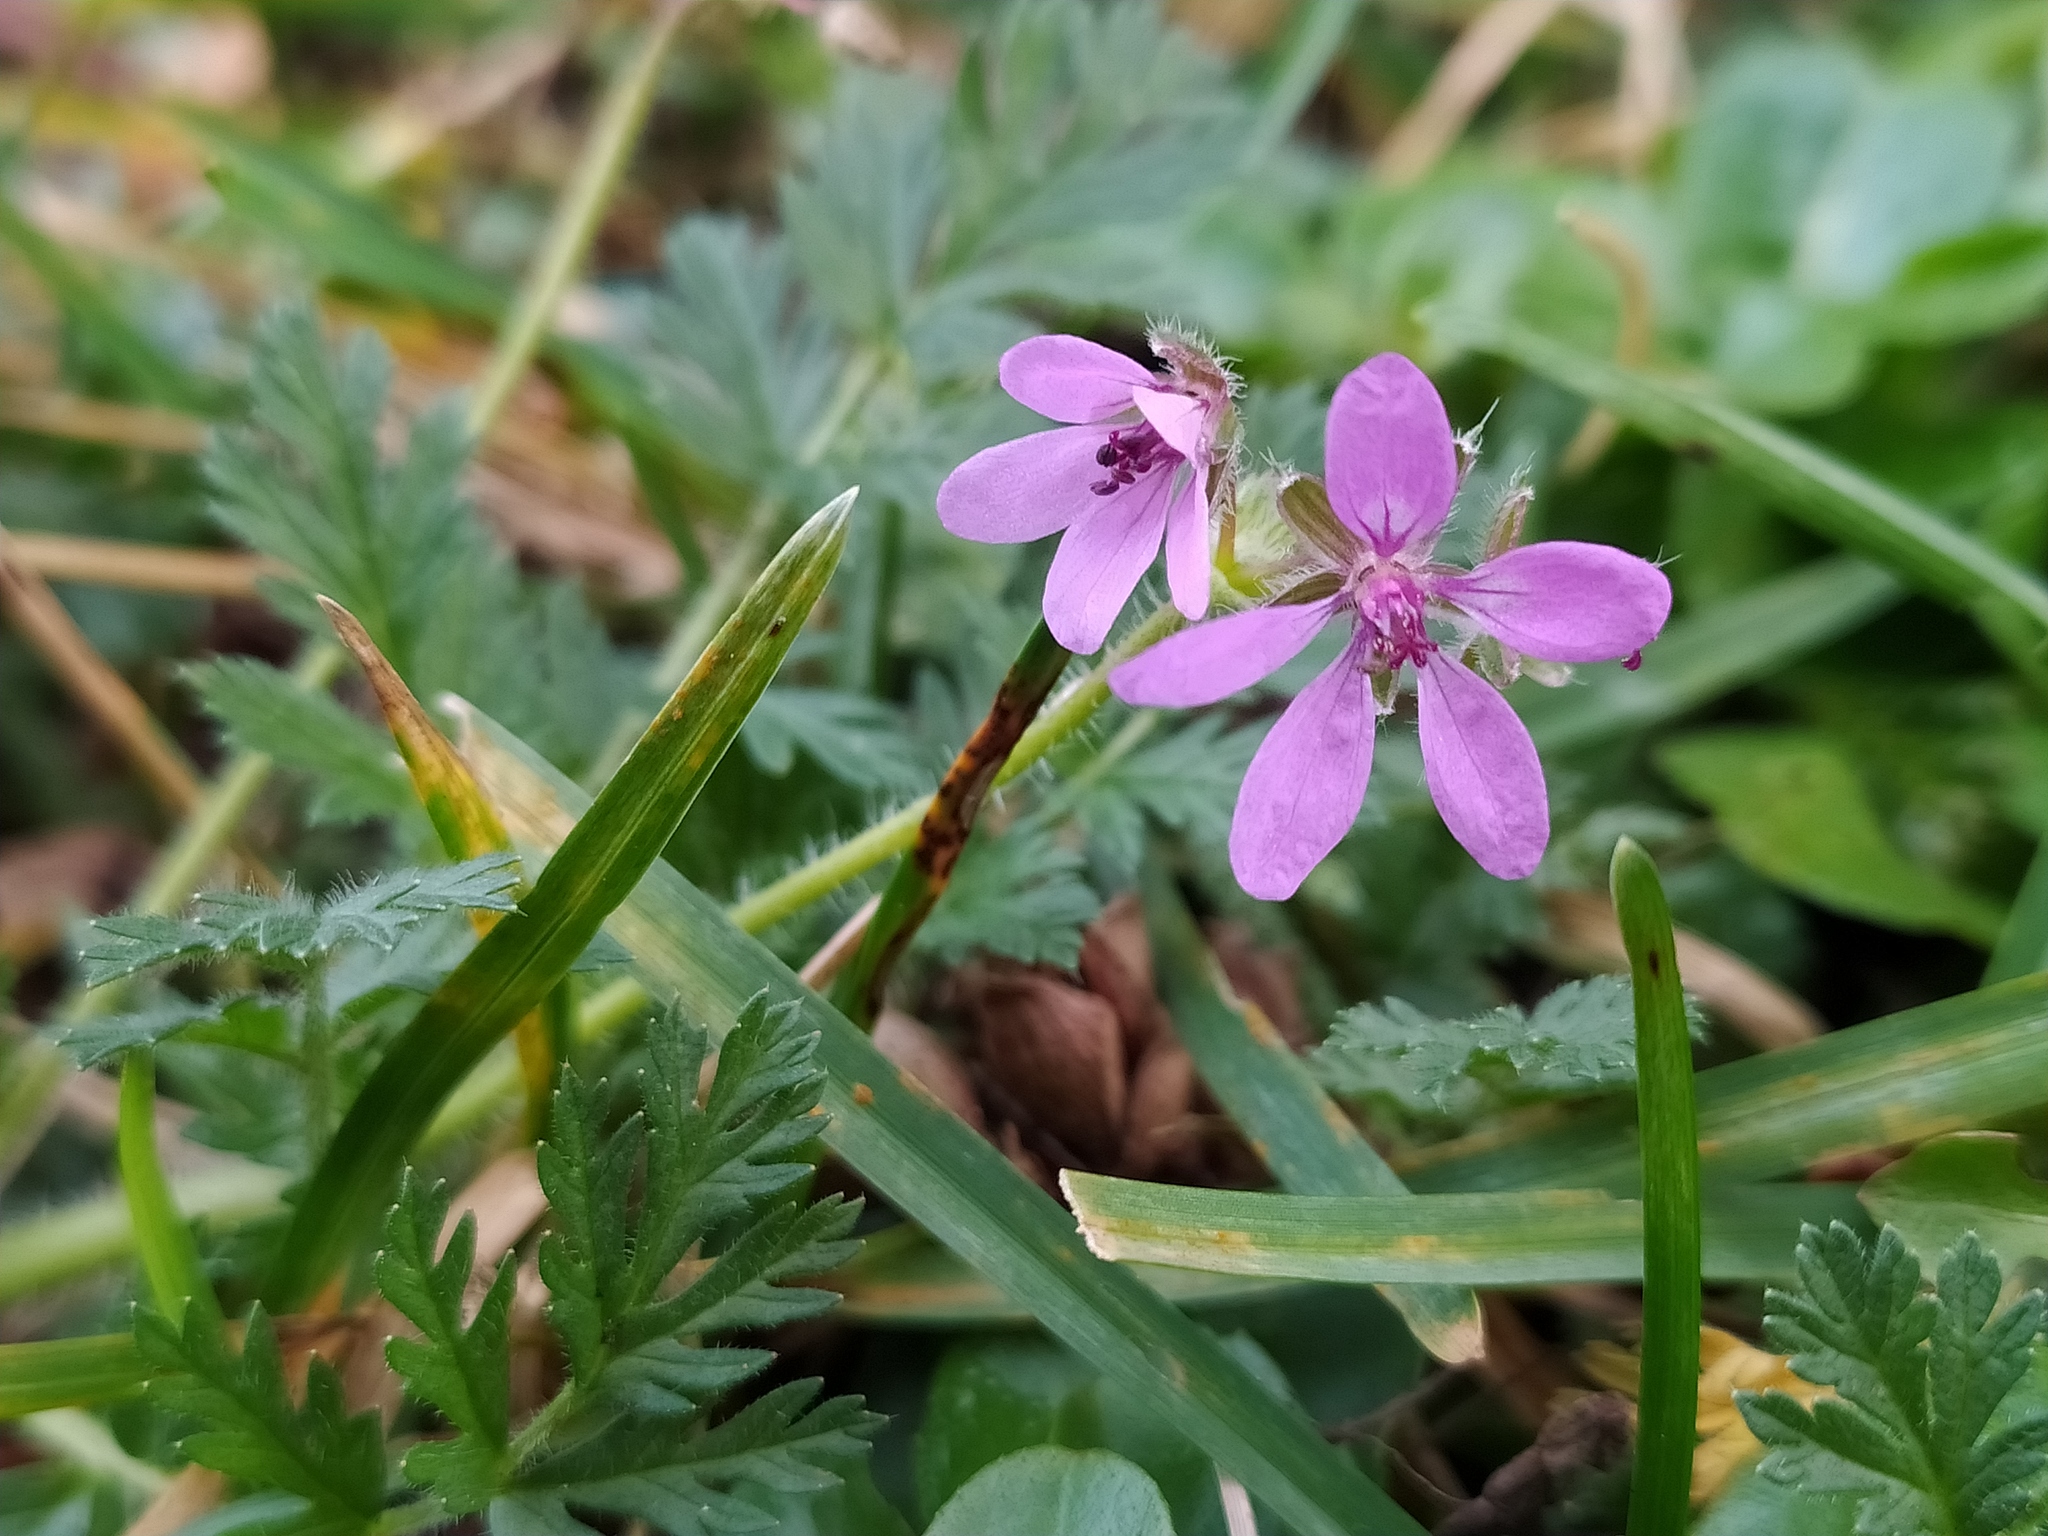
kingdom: Plantae
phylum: Tracheophyta
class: Magnoliopsida
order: Geraniales
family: Geraniaceae
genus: Erodium
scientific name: Erodium cicutarium
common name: Common stork's-bill
